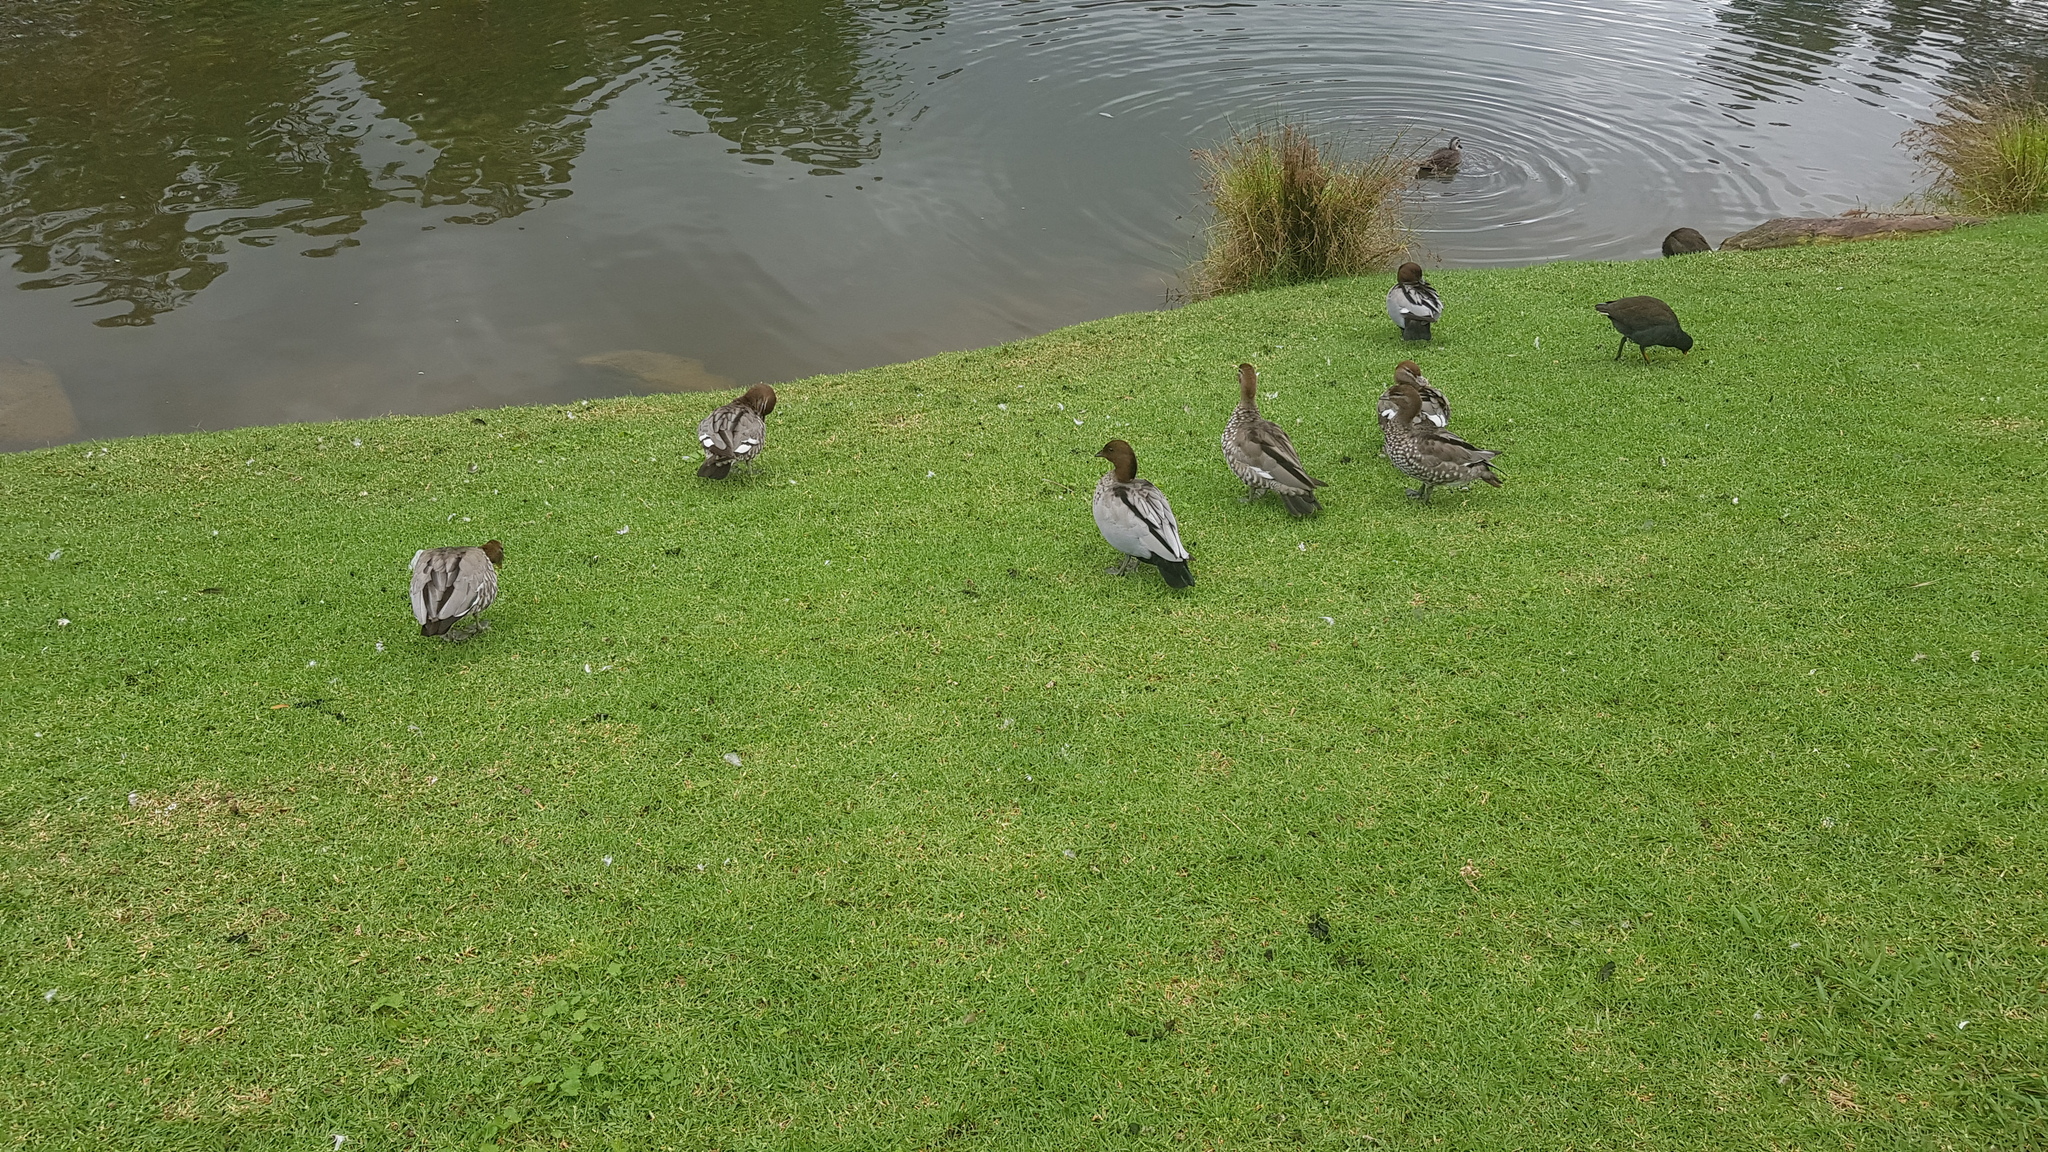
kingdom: Animalia
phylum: Chordata
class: Aves
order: Anseriformes
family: Anatidae
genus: Chenonetta
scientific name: Chenonetta jubata
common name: Maned duck
